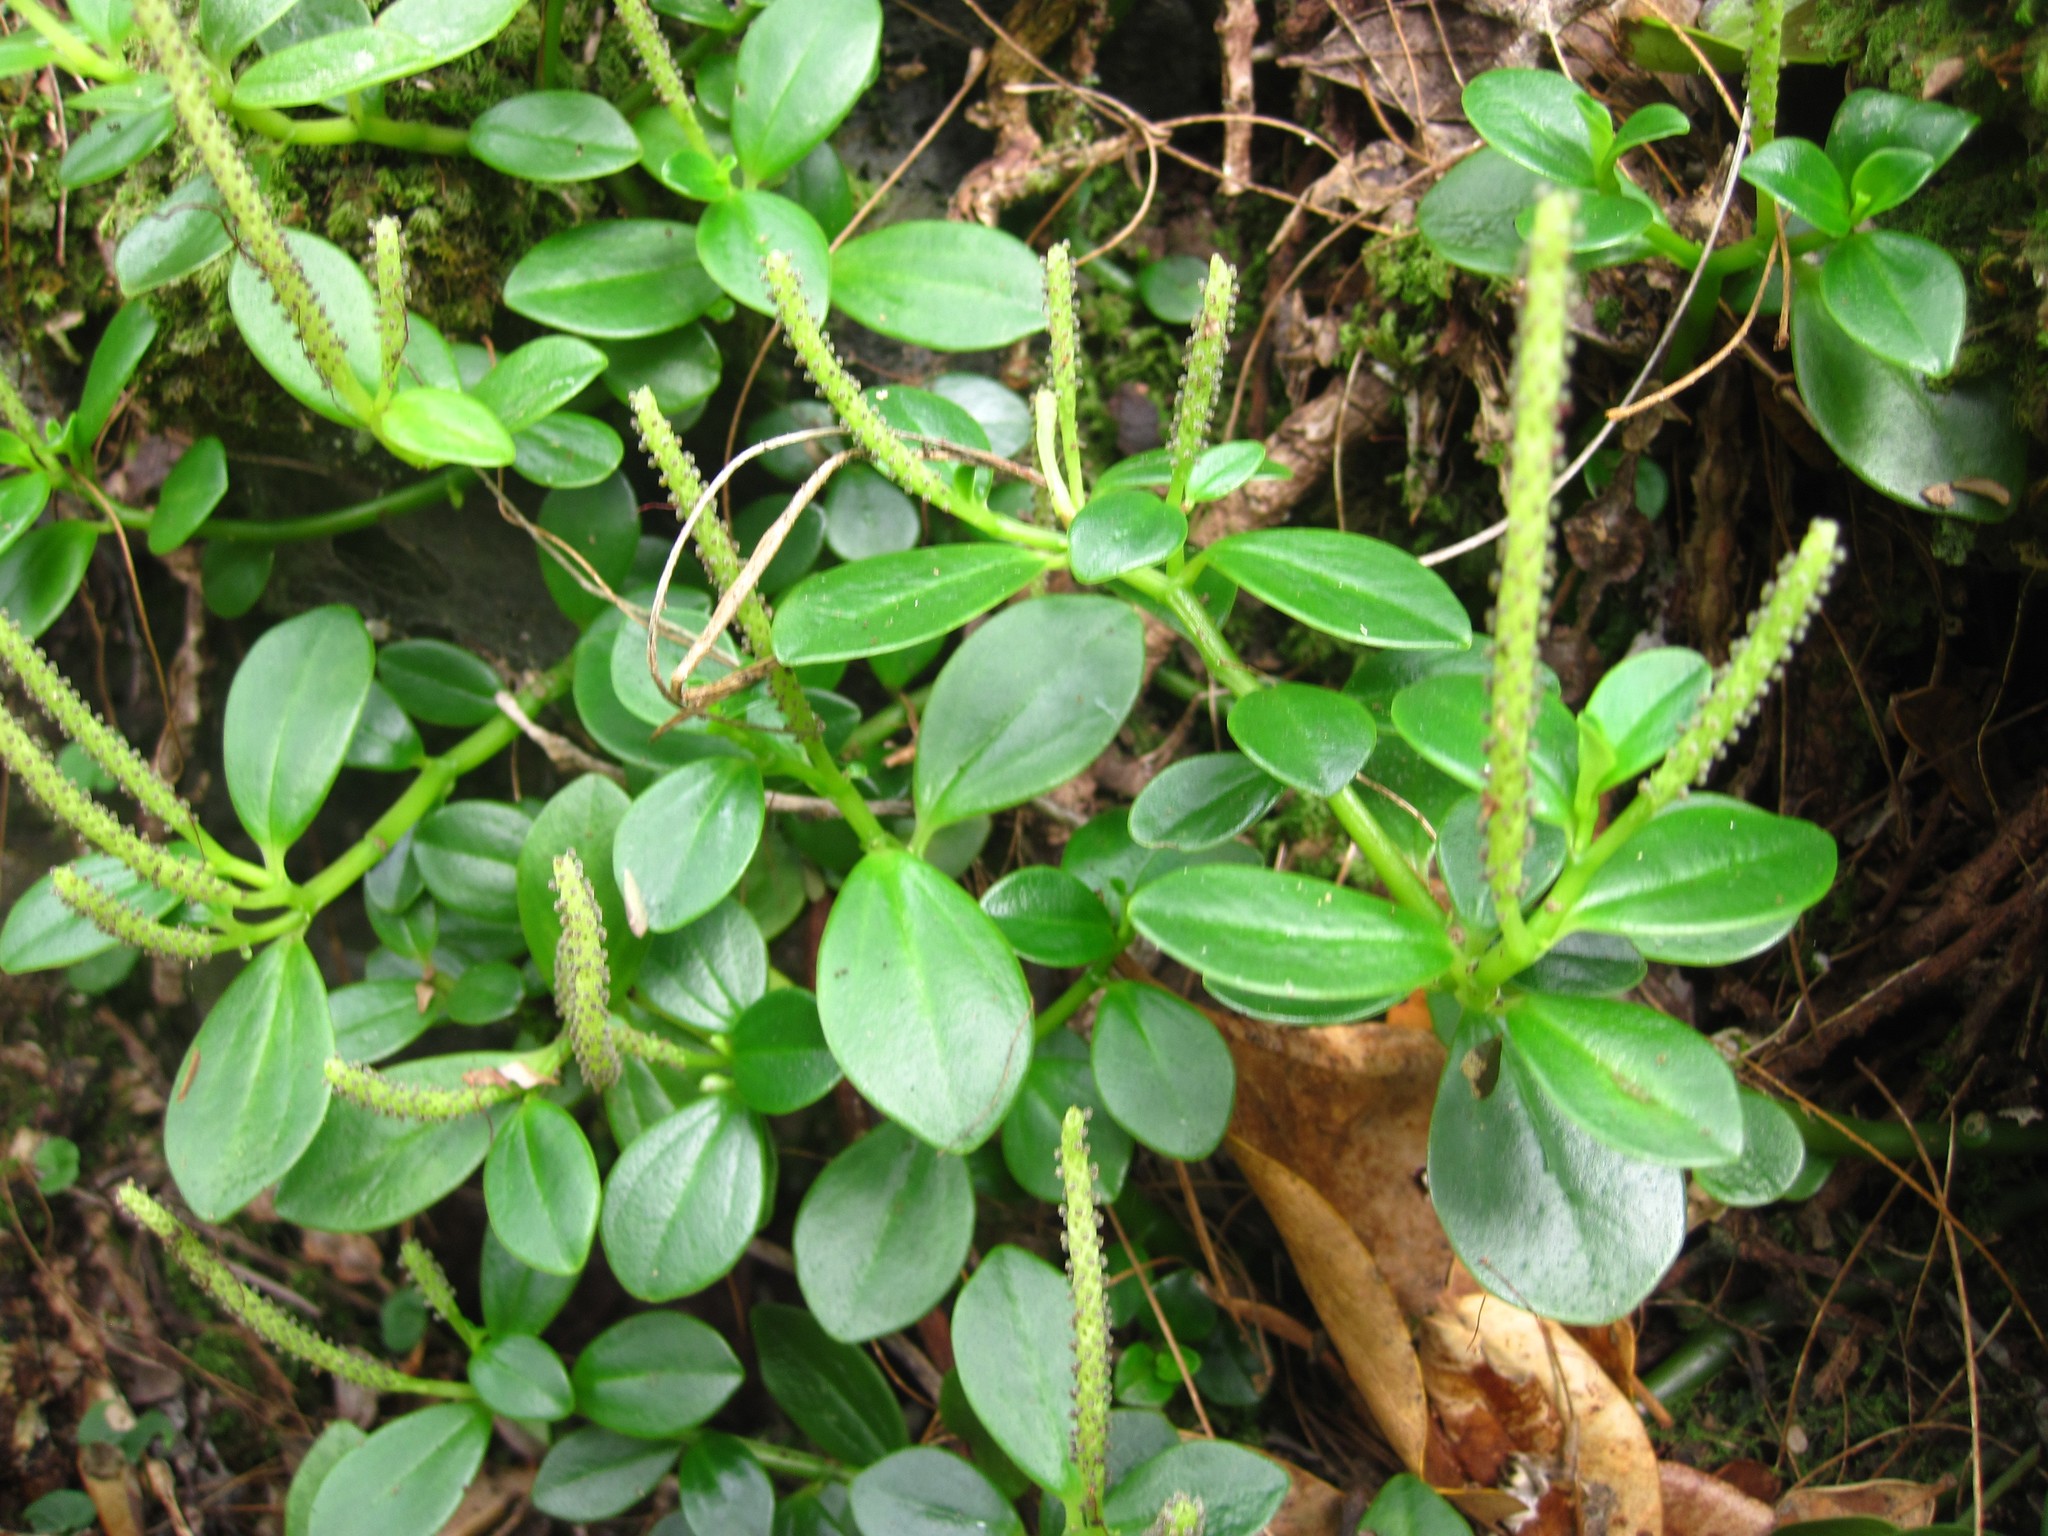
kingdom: Plantae
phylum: Tracheophyta
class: Magnoliopsida
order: Piperales
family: Piperaceae
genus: Peperomia
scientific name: Peperomia urvilleana
